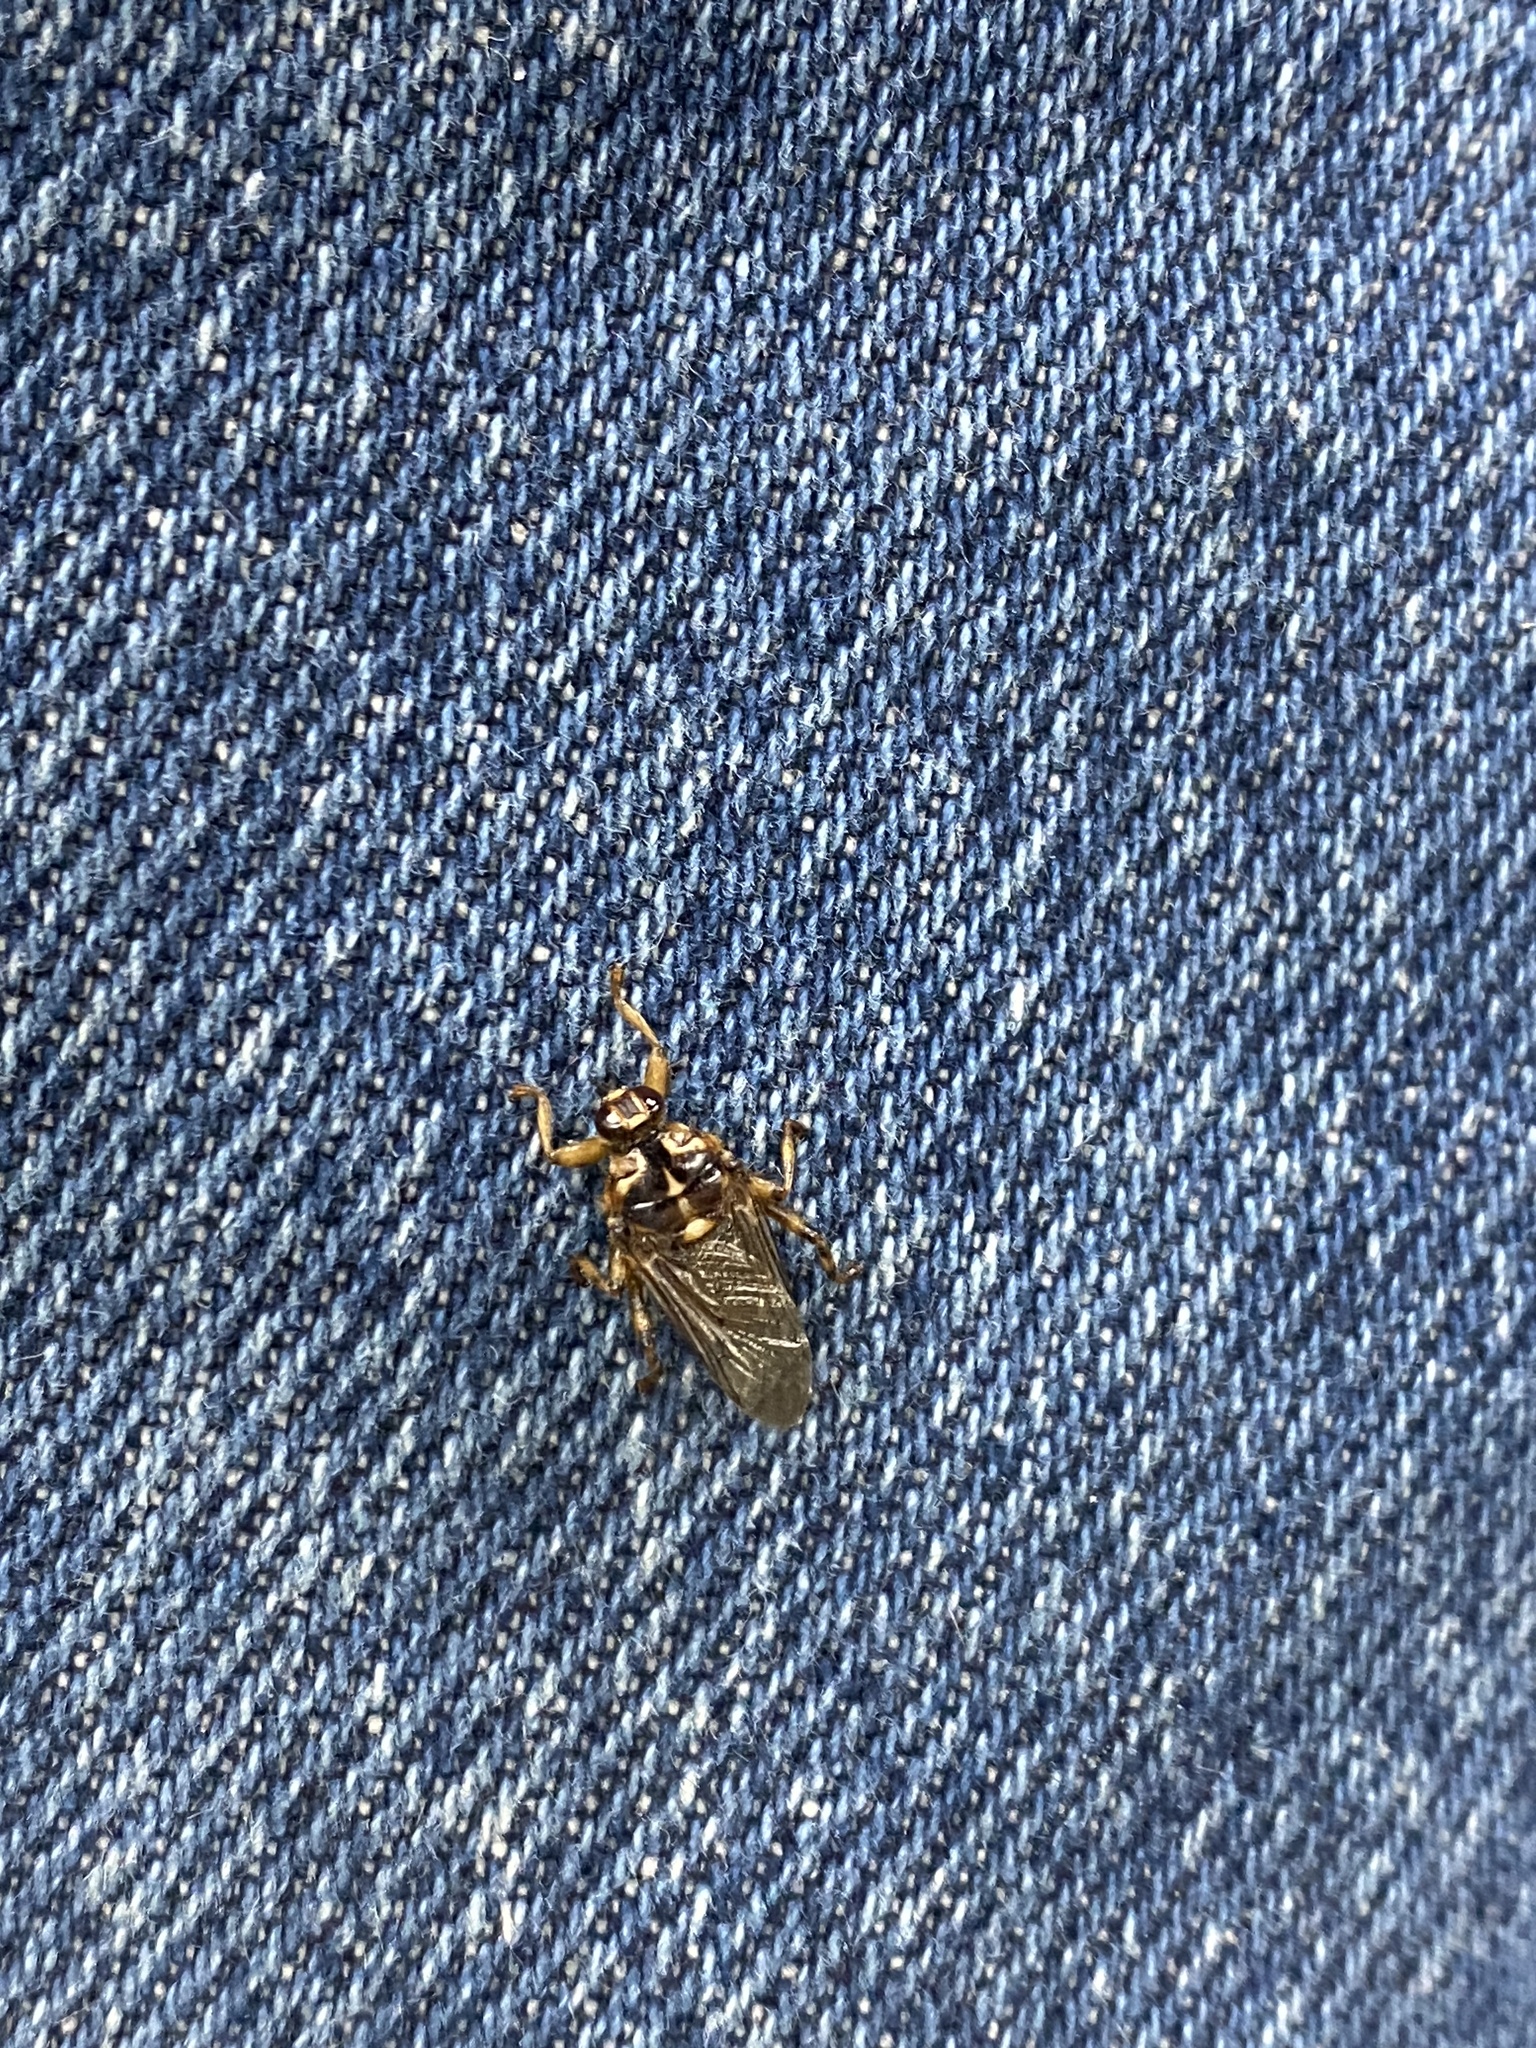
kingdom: Animalia
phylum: Arthropoda
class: Insecta
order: Diptera
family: Hippoboscidae
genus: Hippobosca
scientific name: Hippobosca equina
